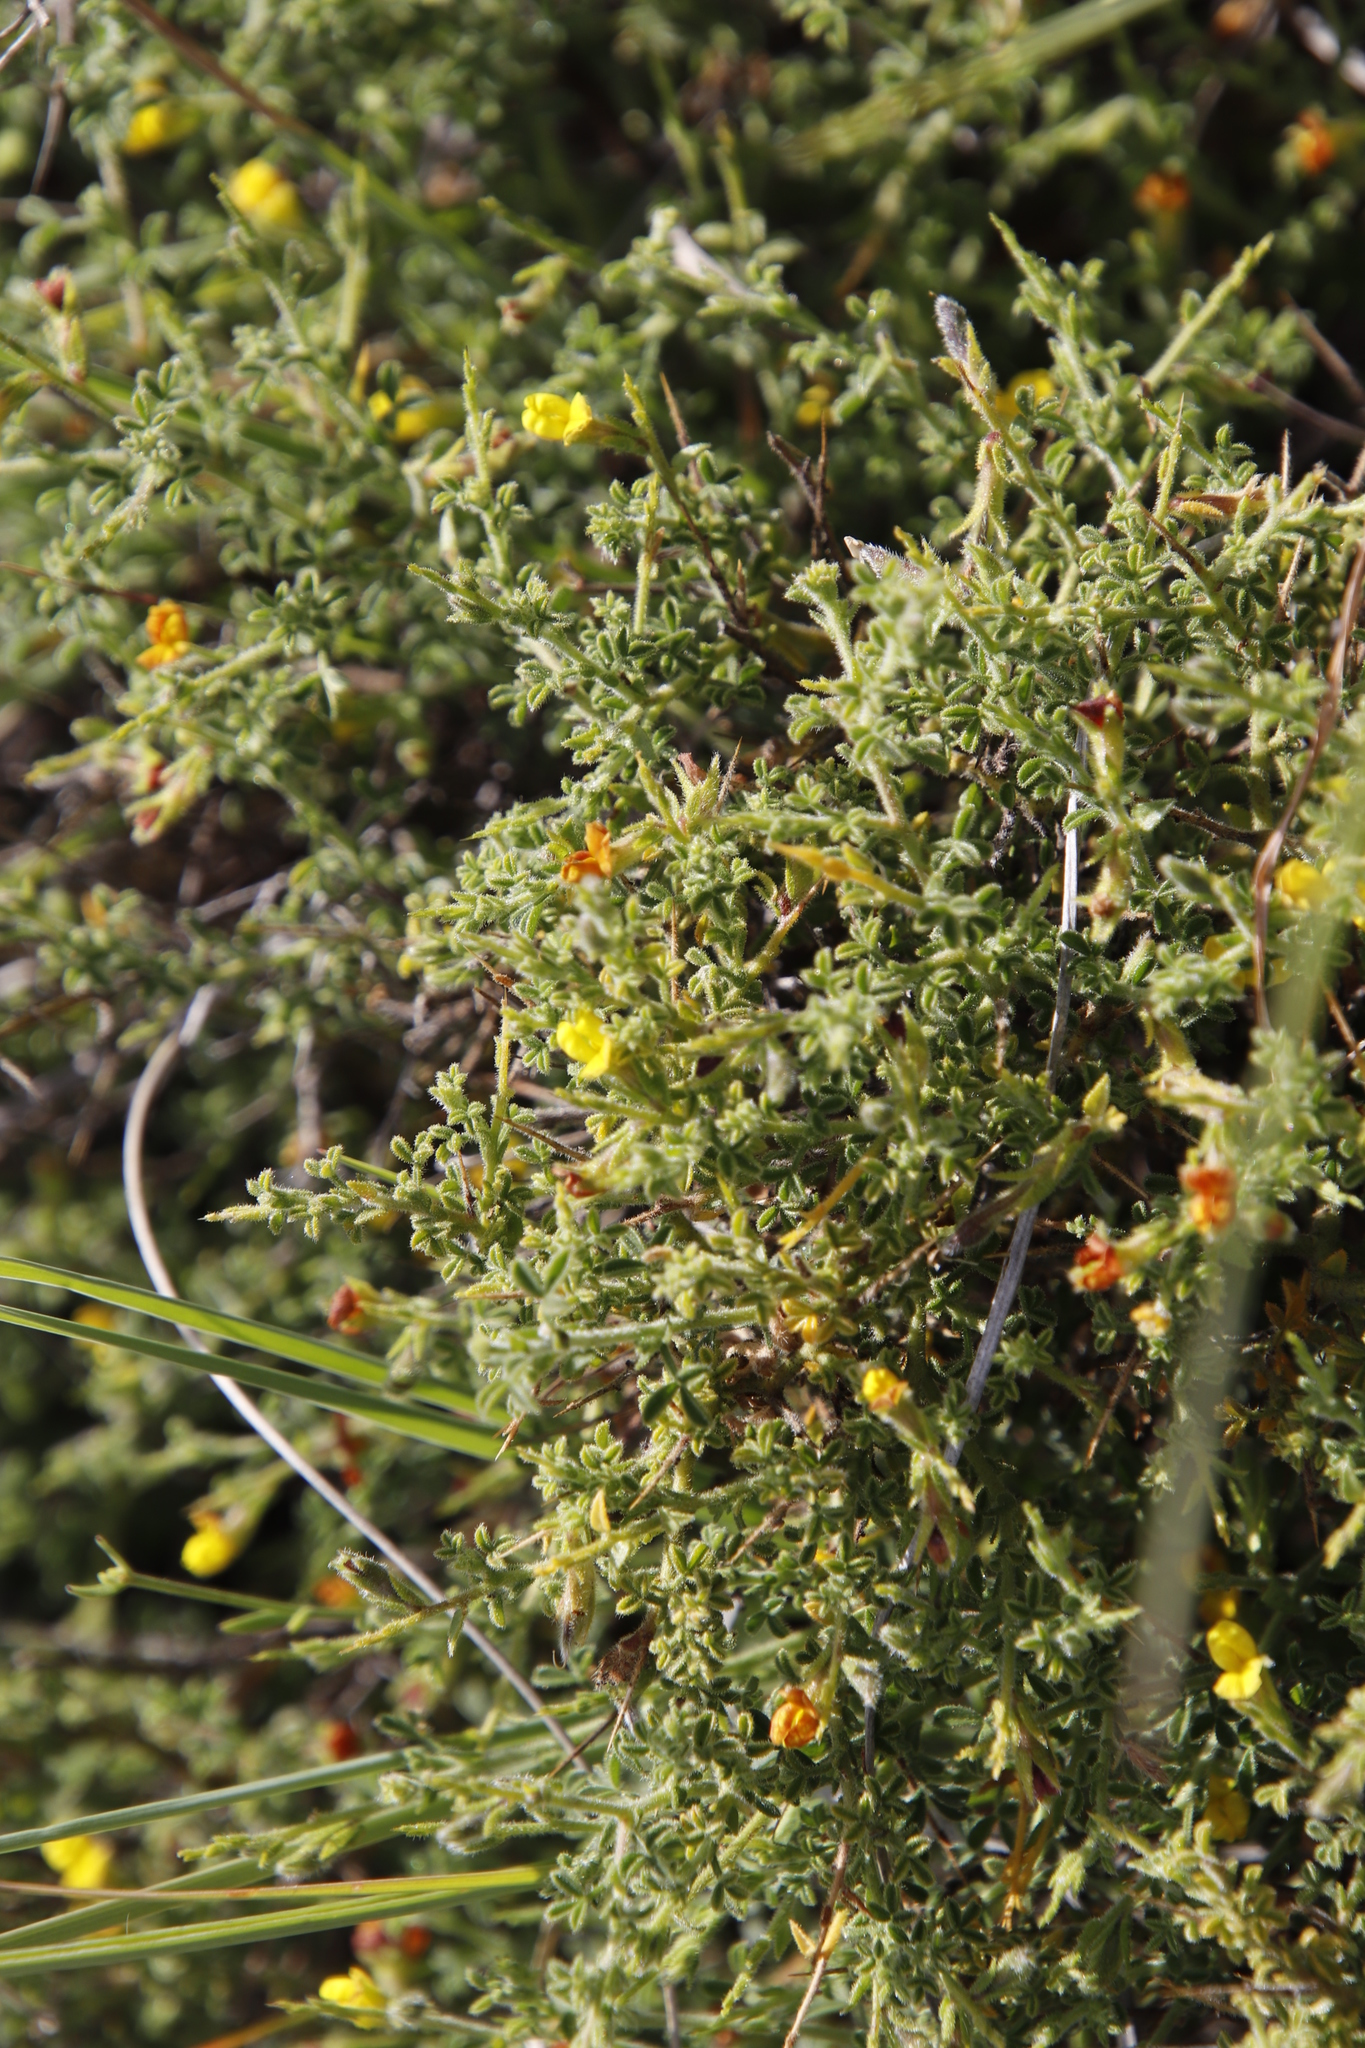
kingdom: Plantae
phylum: Tracheophyta
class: Magnoliopsida
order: Fabales
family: Fabaceae
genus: Melolobium
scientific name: Melolobium candicans
